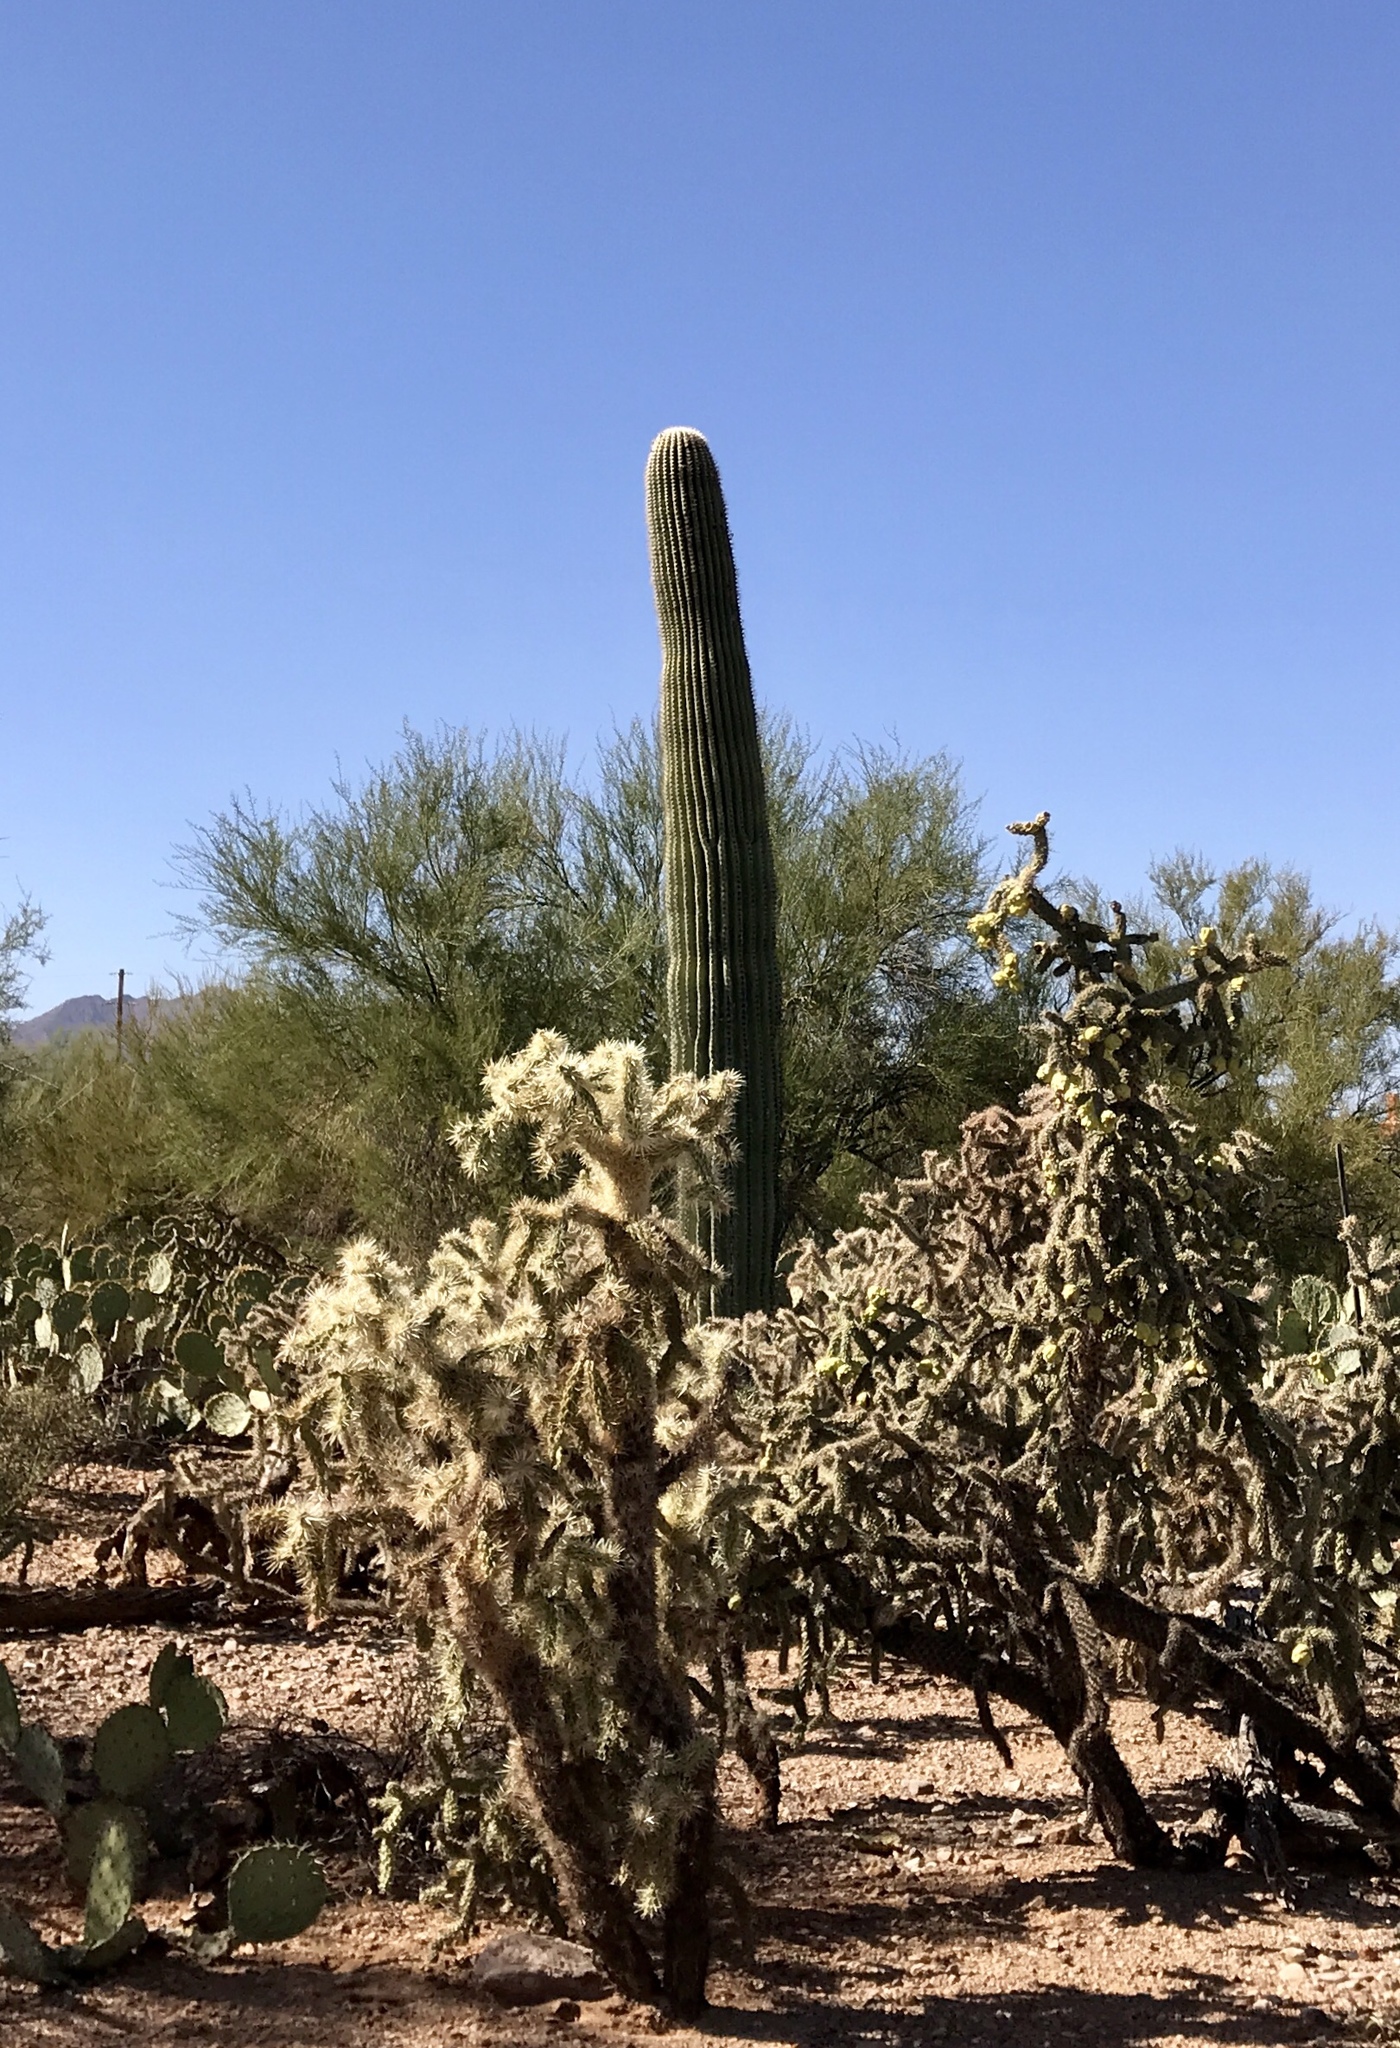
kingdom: Plantae
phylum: Tracheophyta
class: Magnoliopsida
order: Caryophyllales
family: Cactaceae
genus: Carnegiea
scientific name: Carnegiea gigantea
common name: Saguaro
